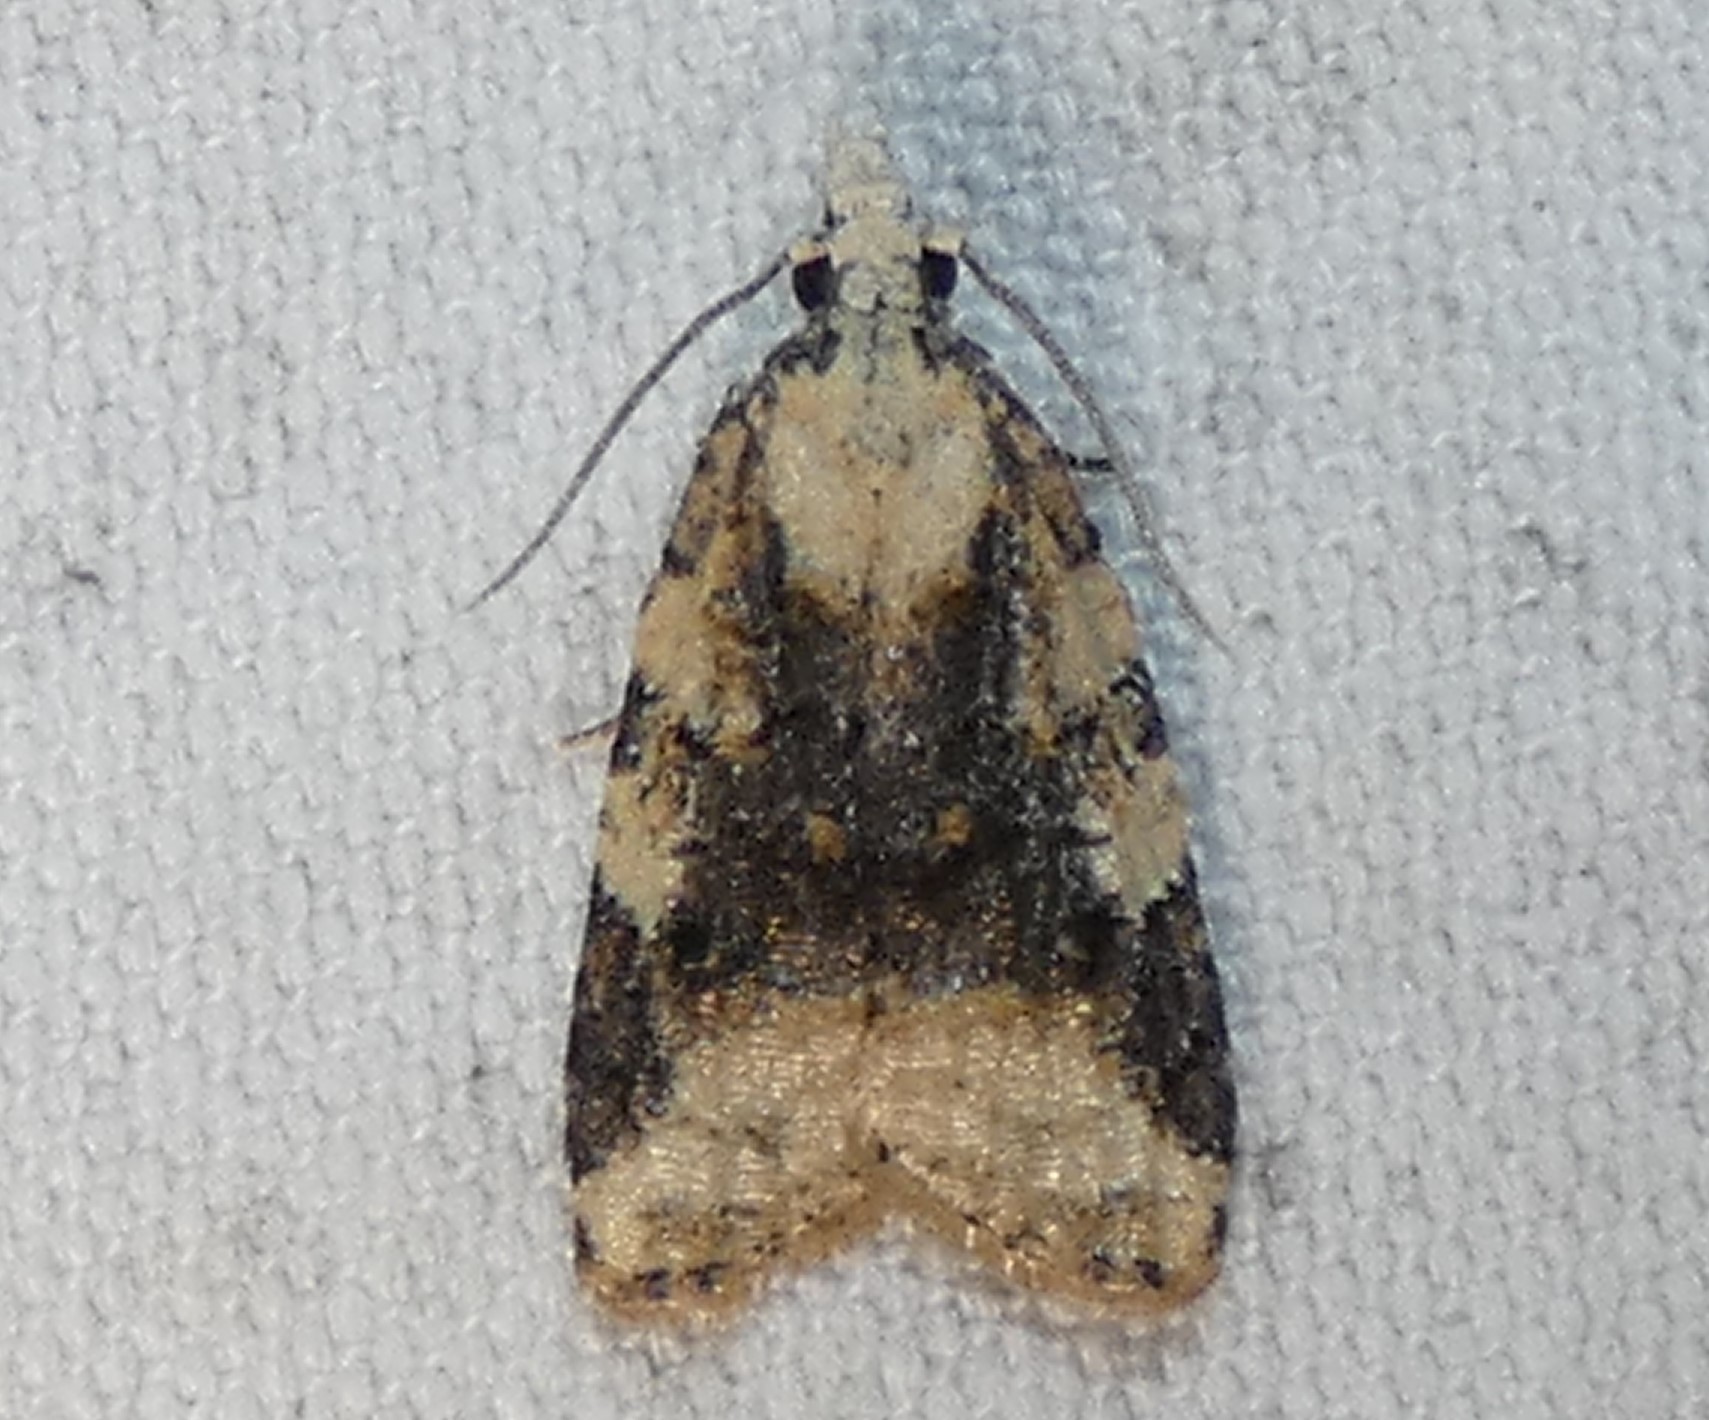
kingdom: Animalia
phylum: Arthropoda
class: Insecta
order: Lepidoptera
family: Tortricidae
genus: Platynota
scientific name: Platynota exasperatana
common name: Exasperating platynota moth
